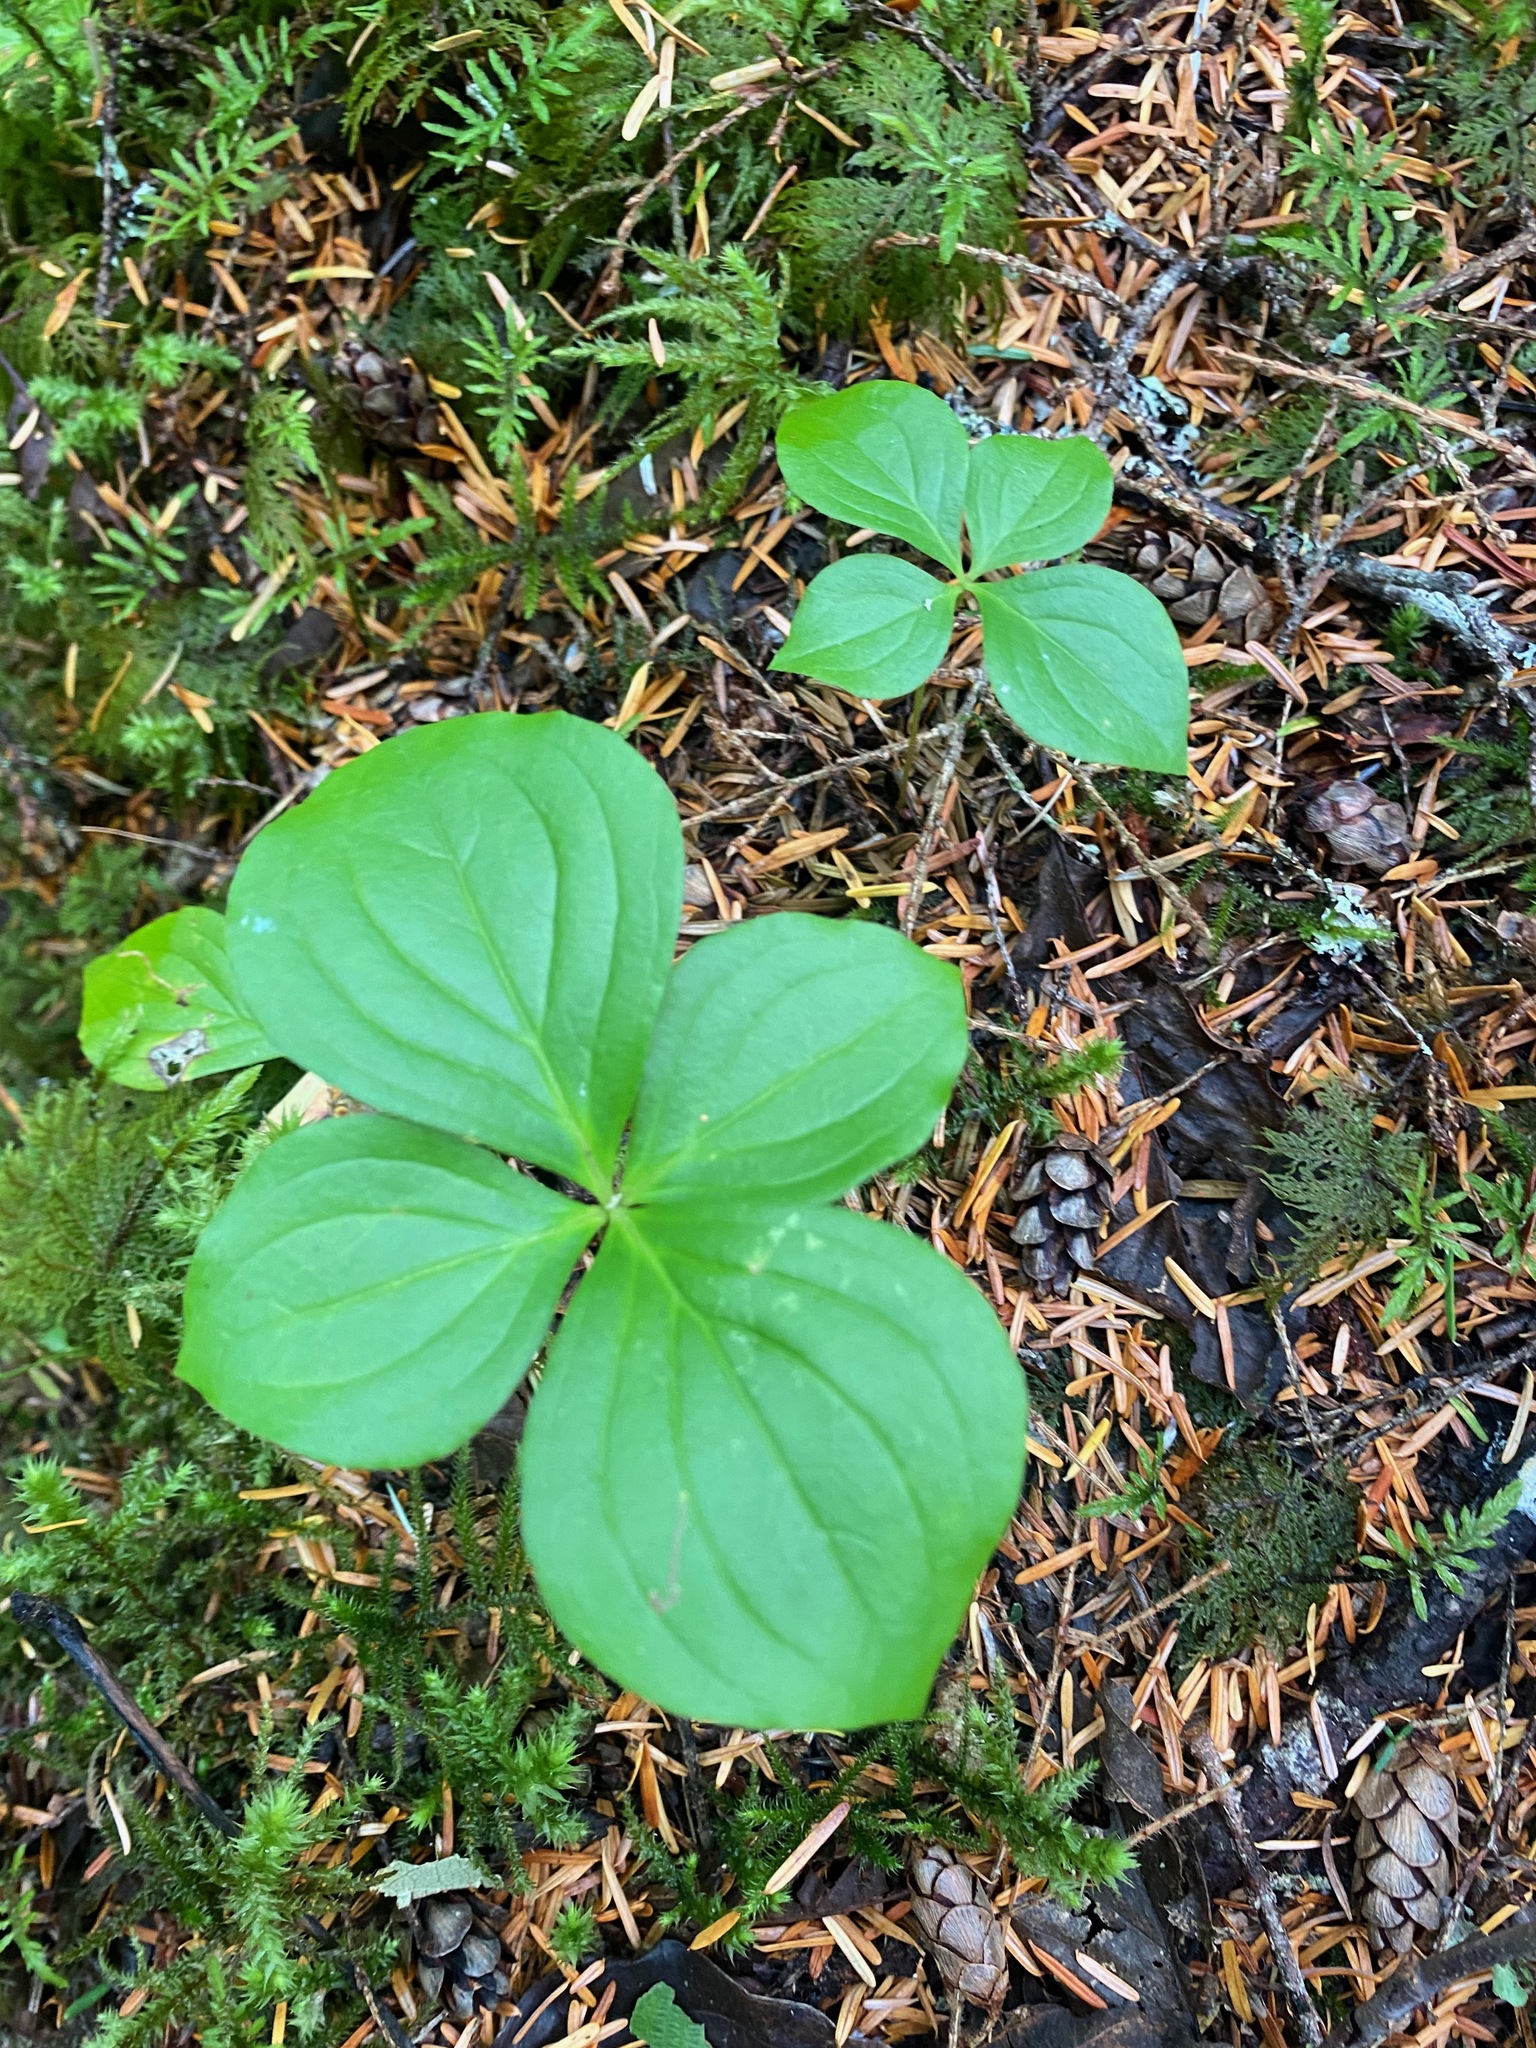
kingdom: Plantae
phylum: Tracheophyta
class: Magnoliopsida
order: Cornales
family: Cornaceae
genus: Cornus
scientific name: Cornus unalaschkensis
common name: Alaska bunchberry
